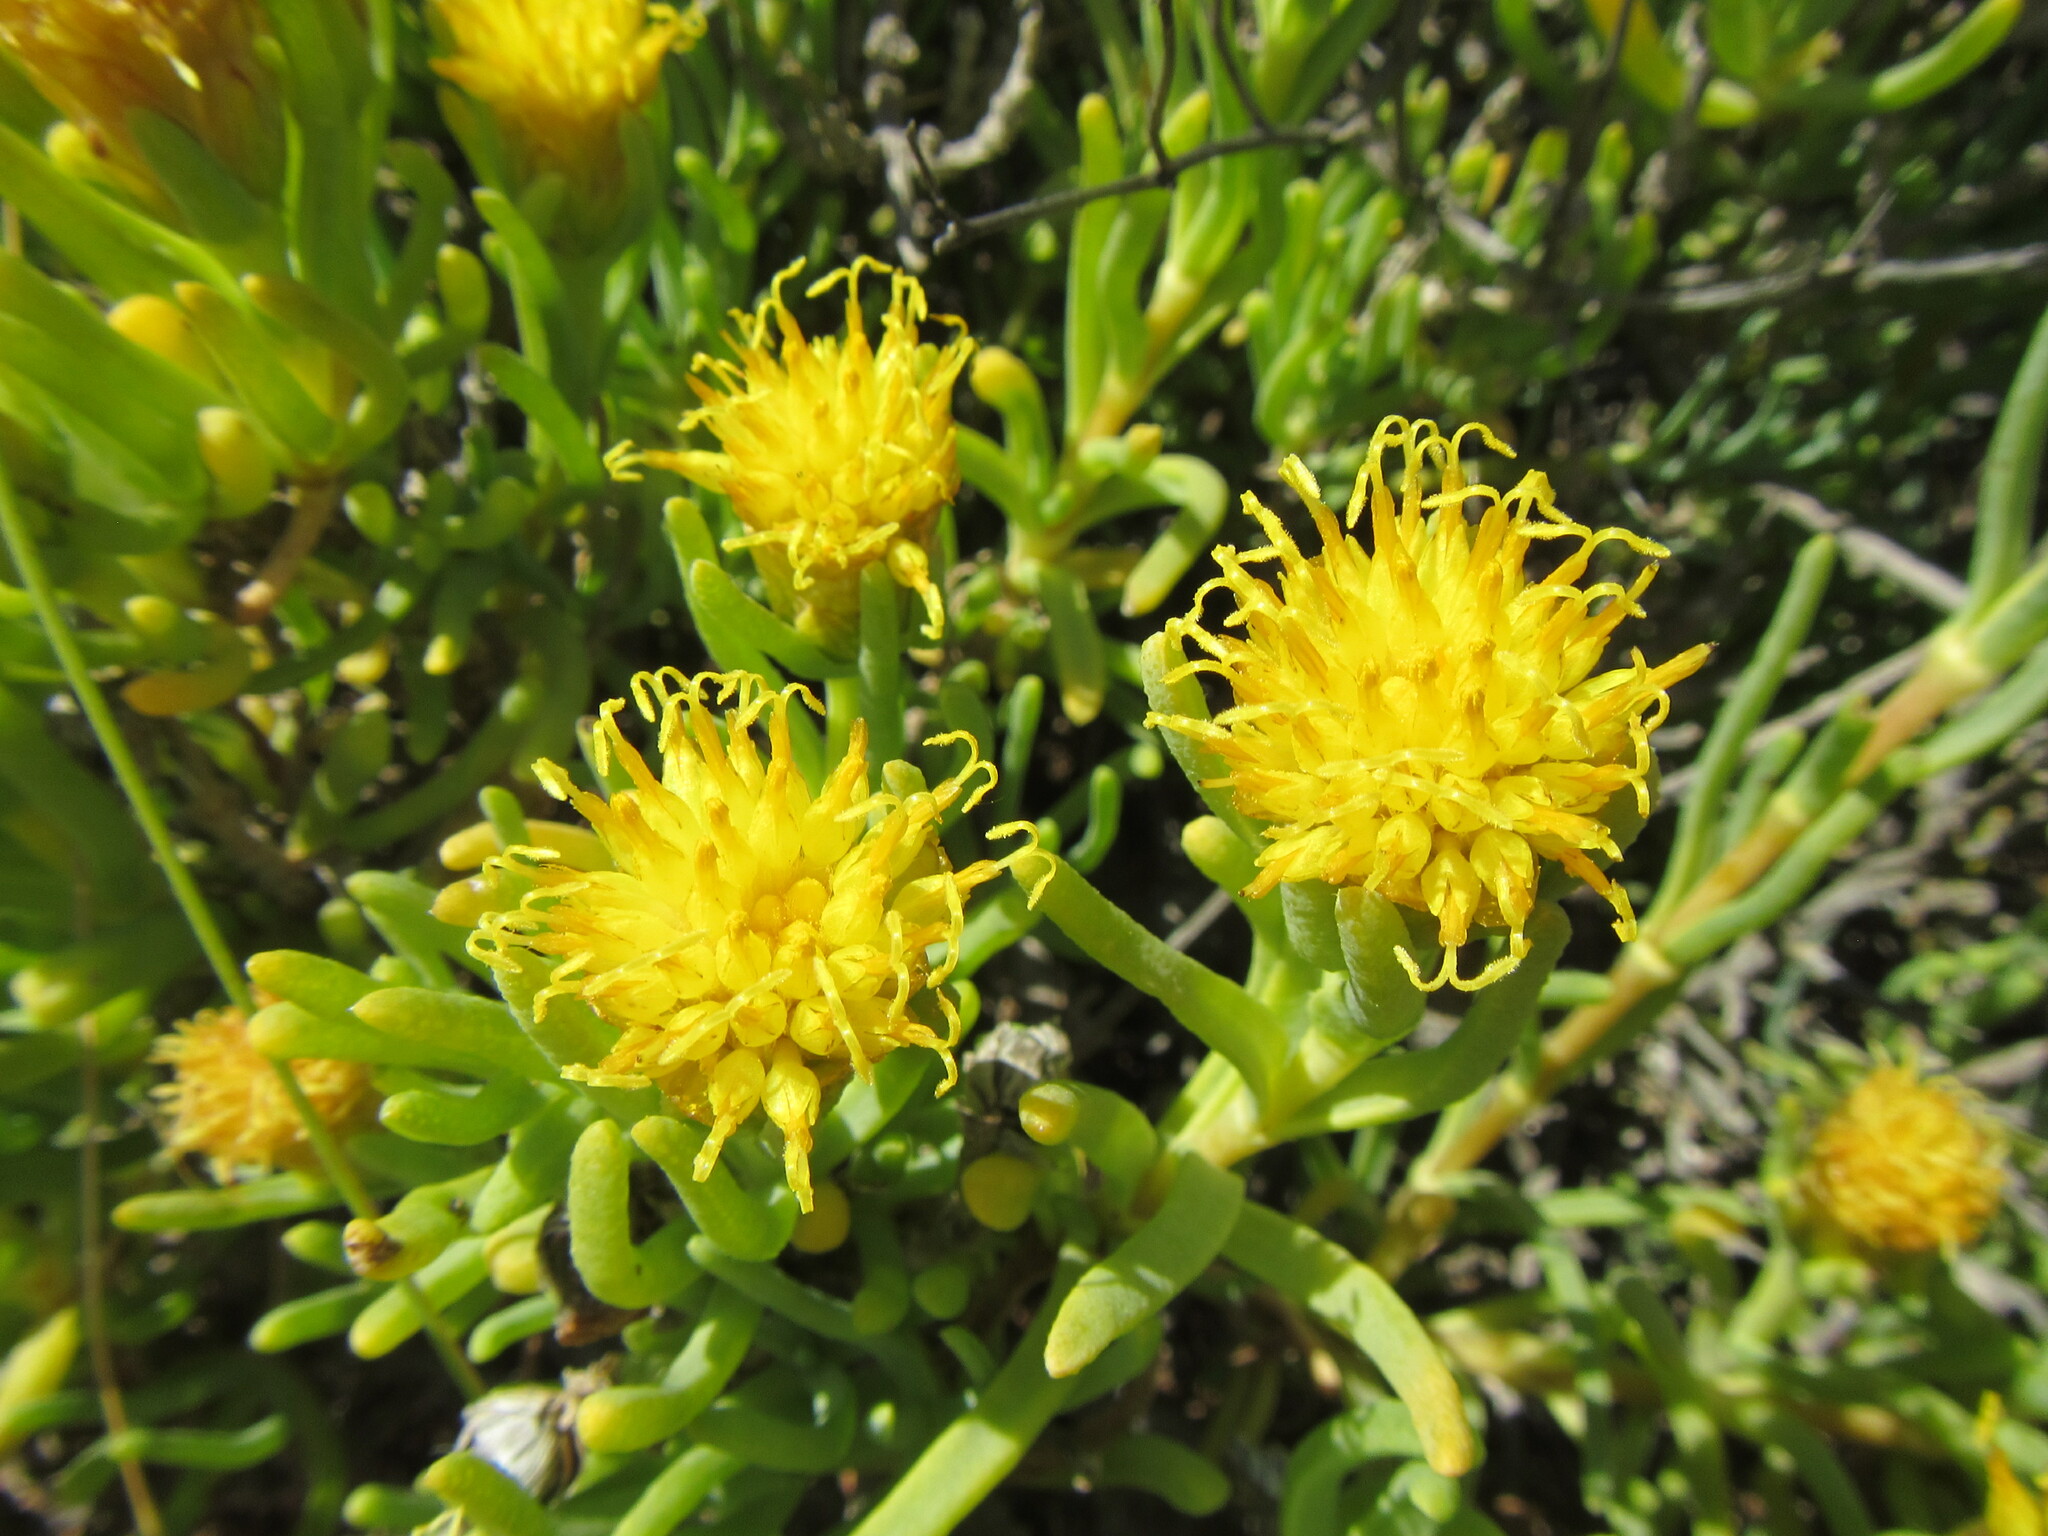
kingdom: Plantae
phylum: Tracheophyta
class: Magnoliopsida
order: Asterales
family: Asteraceae
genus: Pteronia
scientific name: Pteronia heterocarpa
